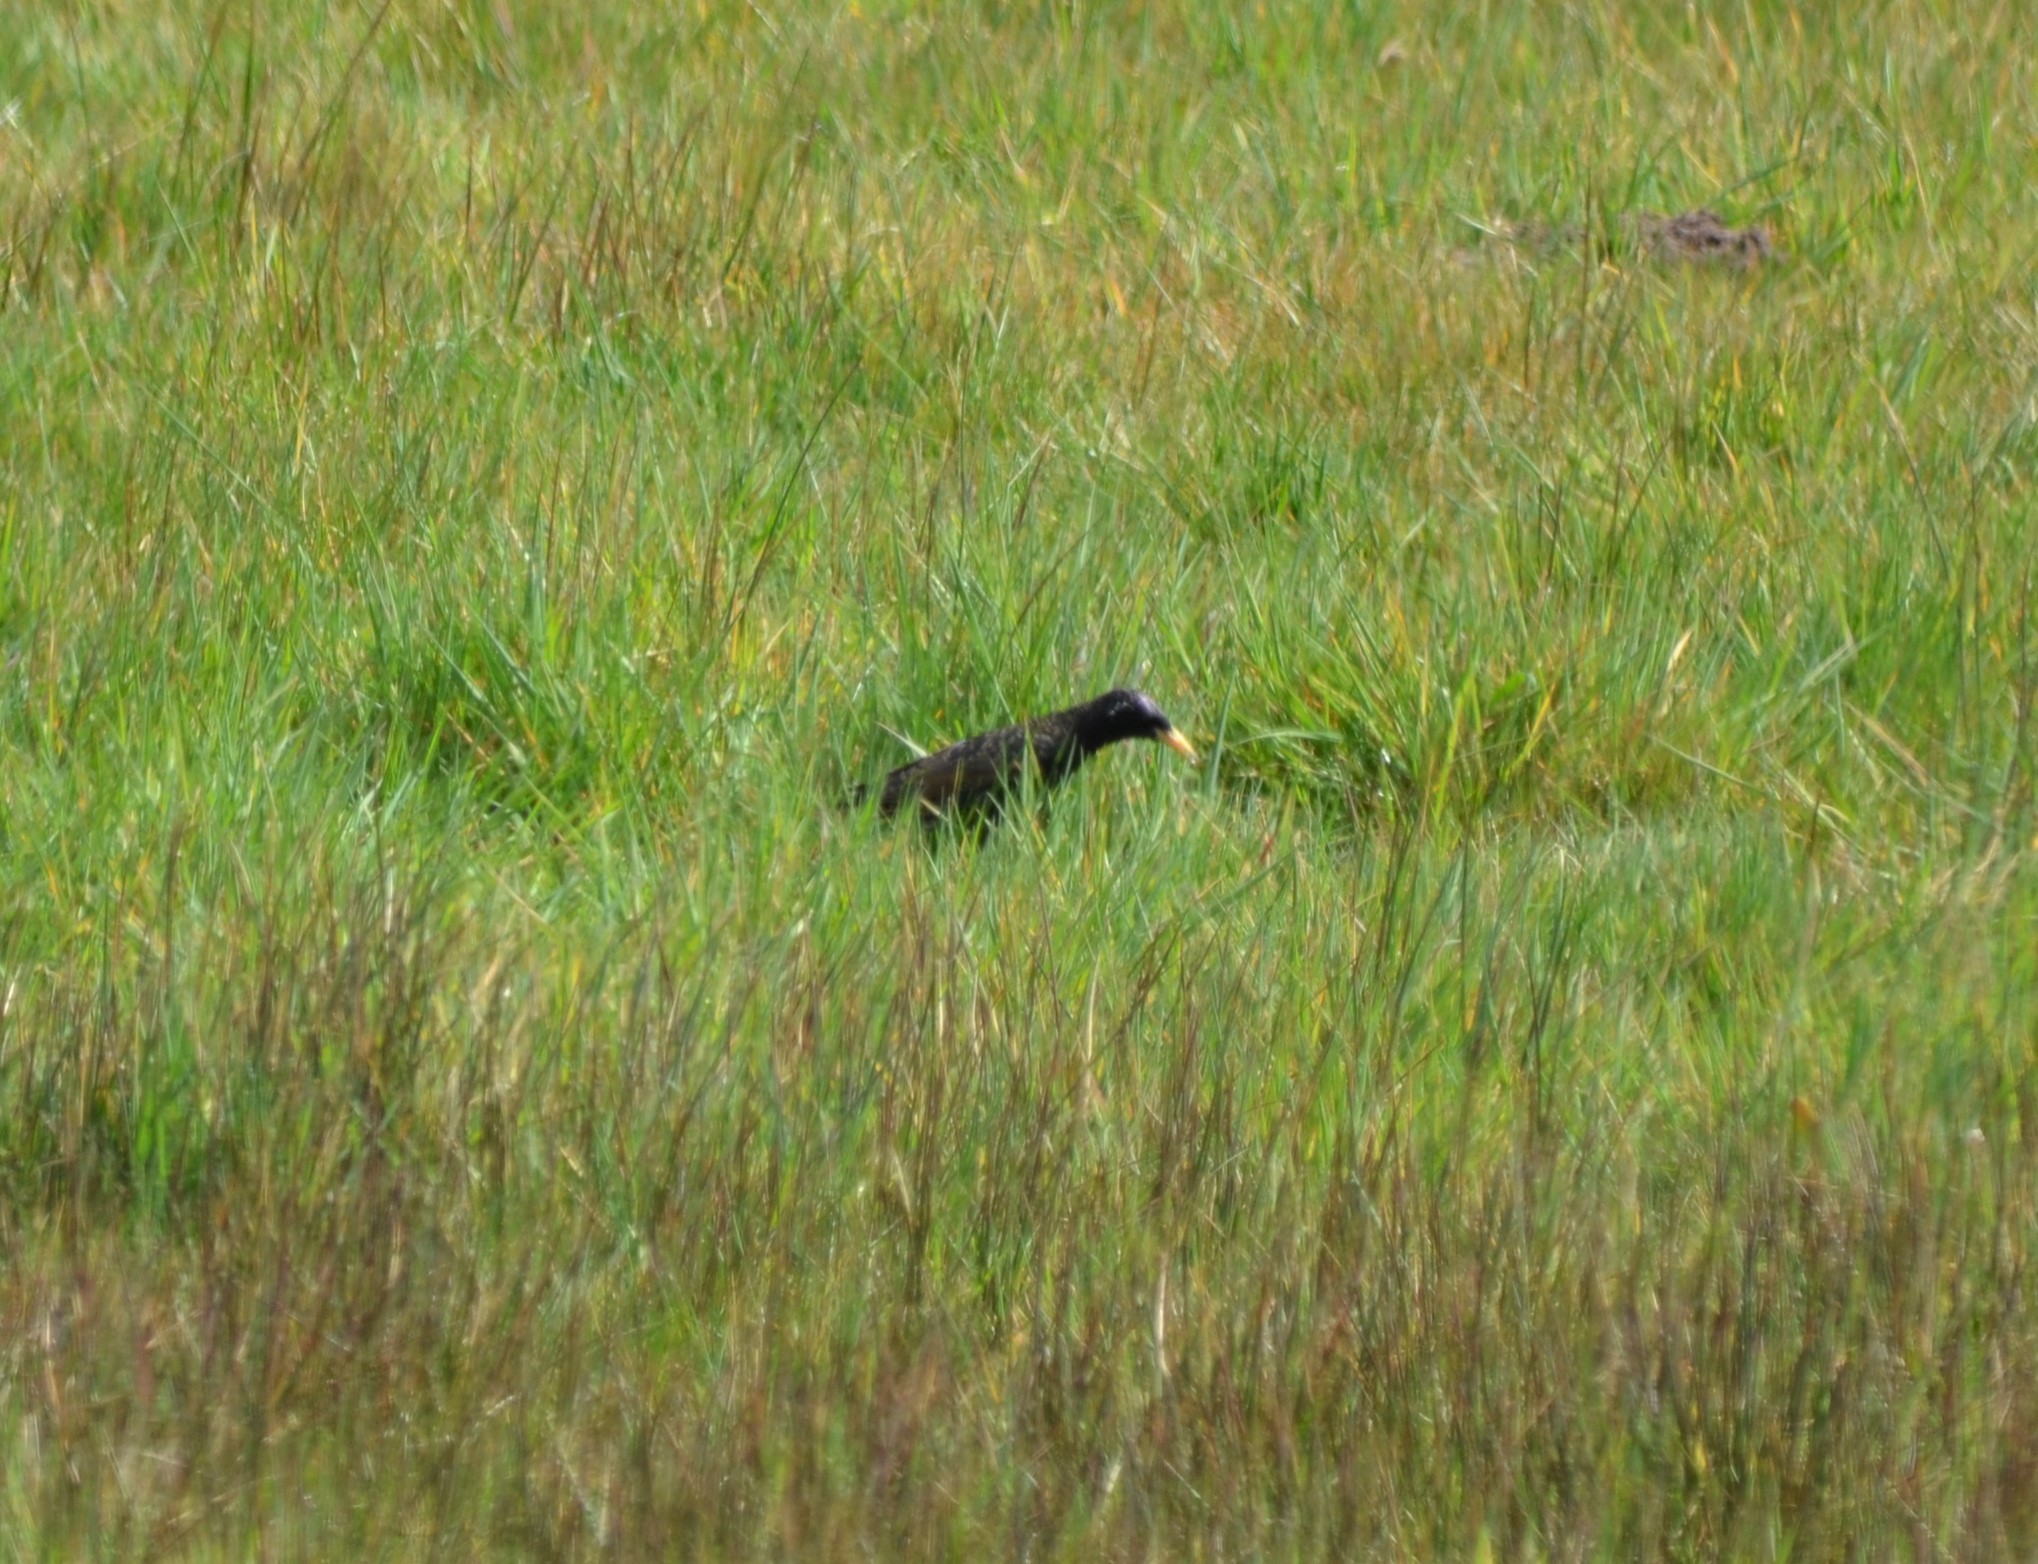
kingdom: Animalia
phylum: Chordata
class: Aves
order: Passeriformes
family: Sturnidae
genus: Sturnus
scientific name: Sturnus vulgaris
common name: Common starling
